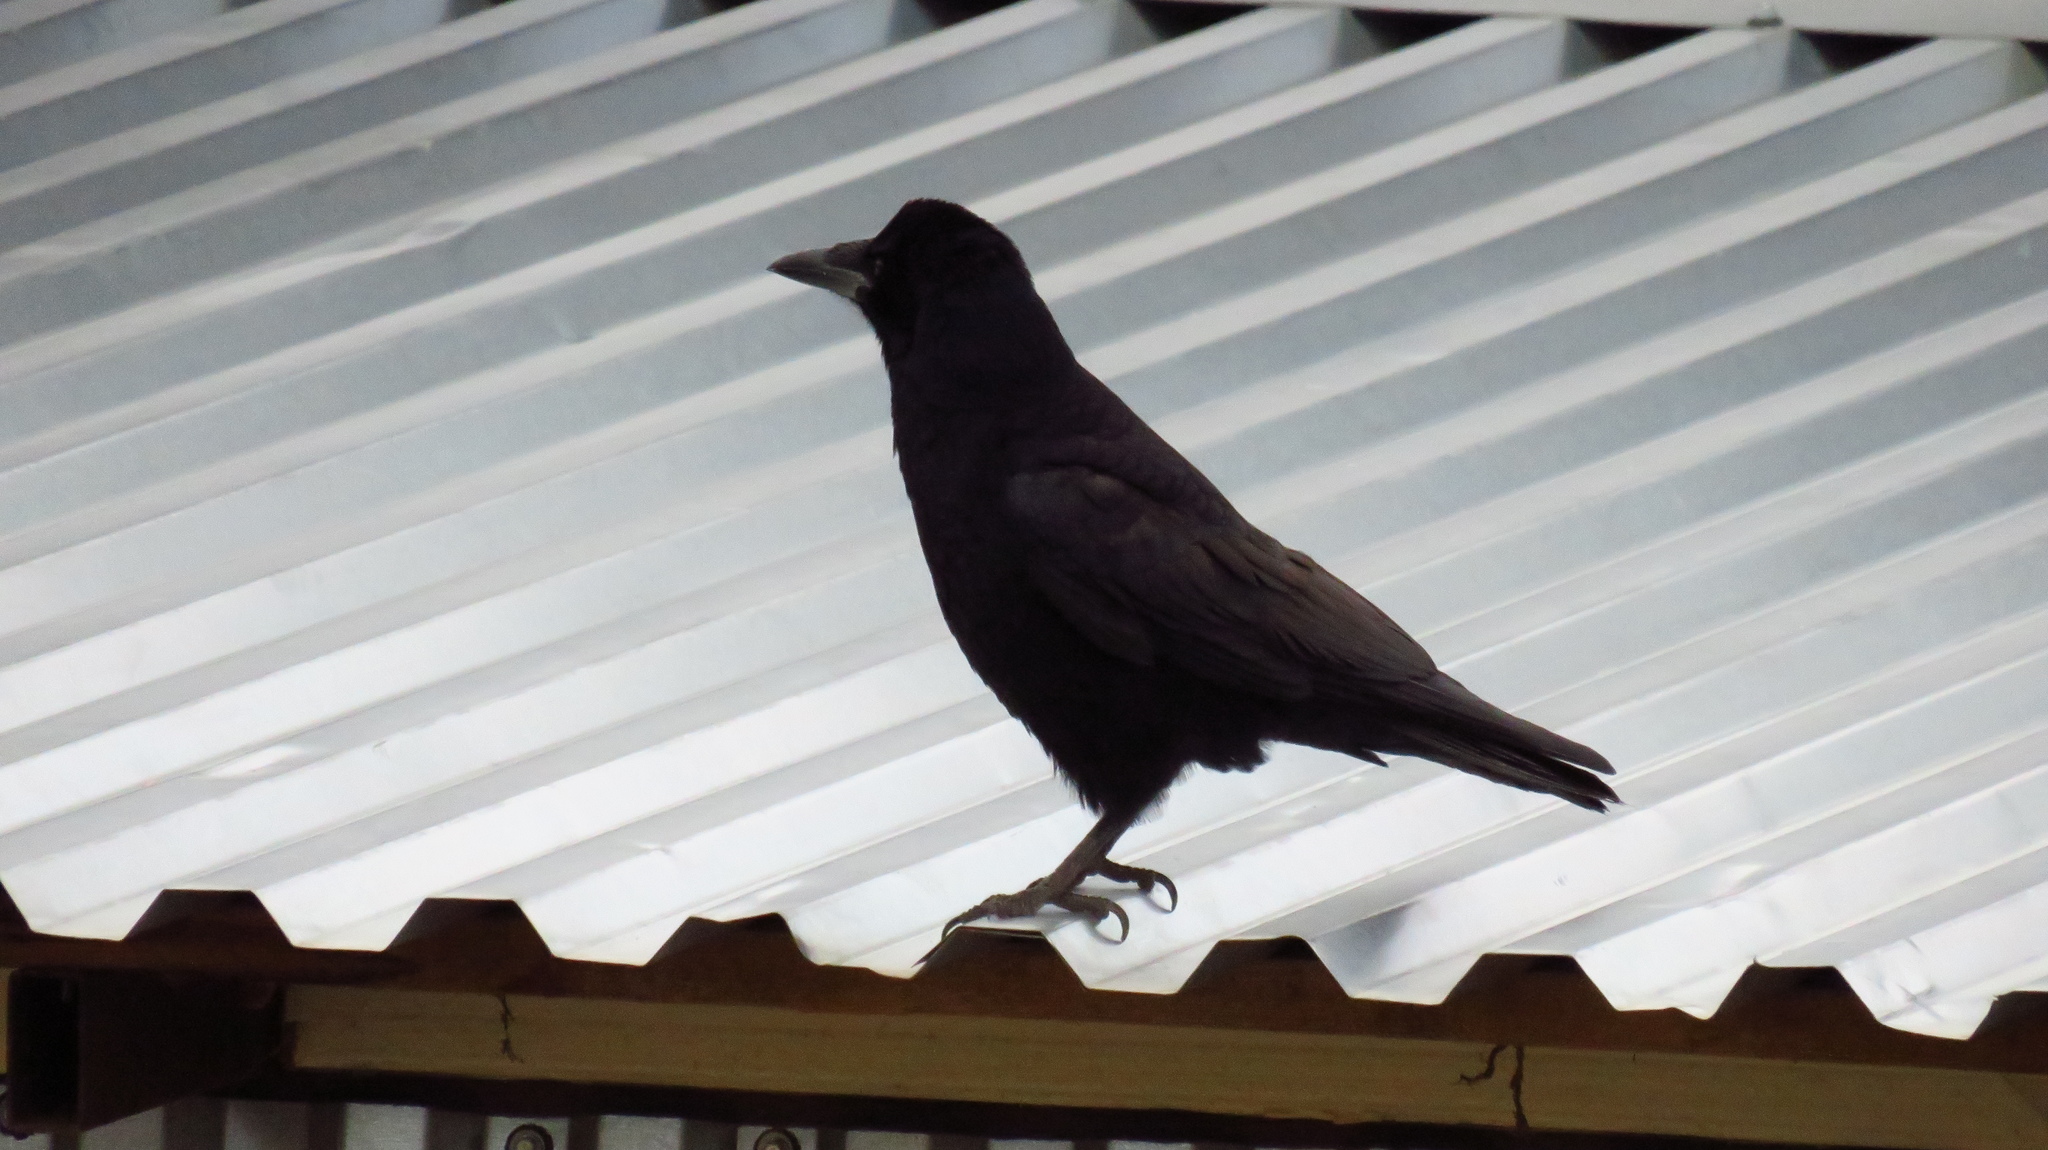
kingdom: Animalia
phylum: Chordata
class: Aves
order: Passeriformes
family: Corvidae
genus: Corvus
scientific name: Corvus frugilegus
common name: Rook
